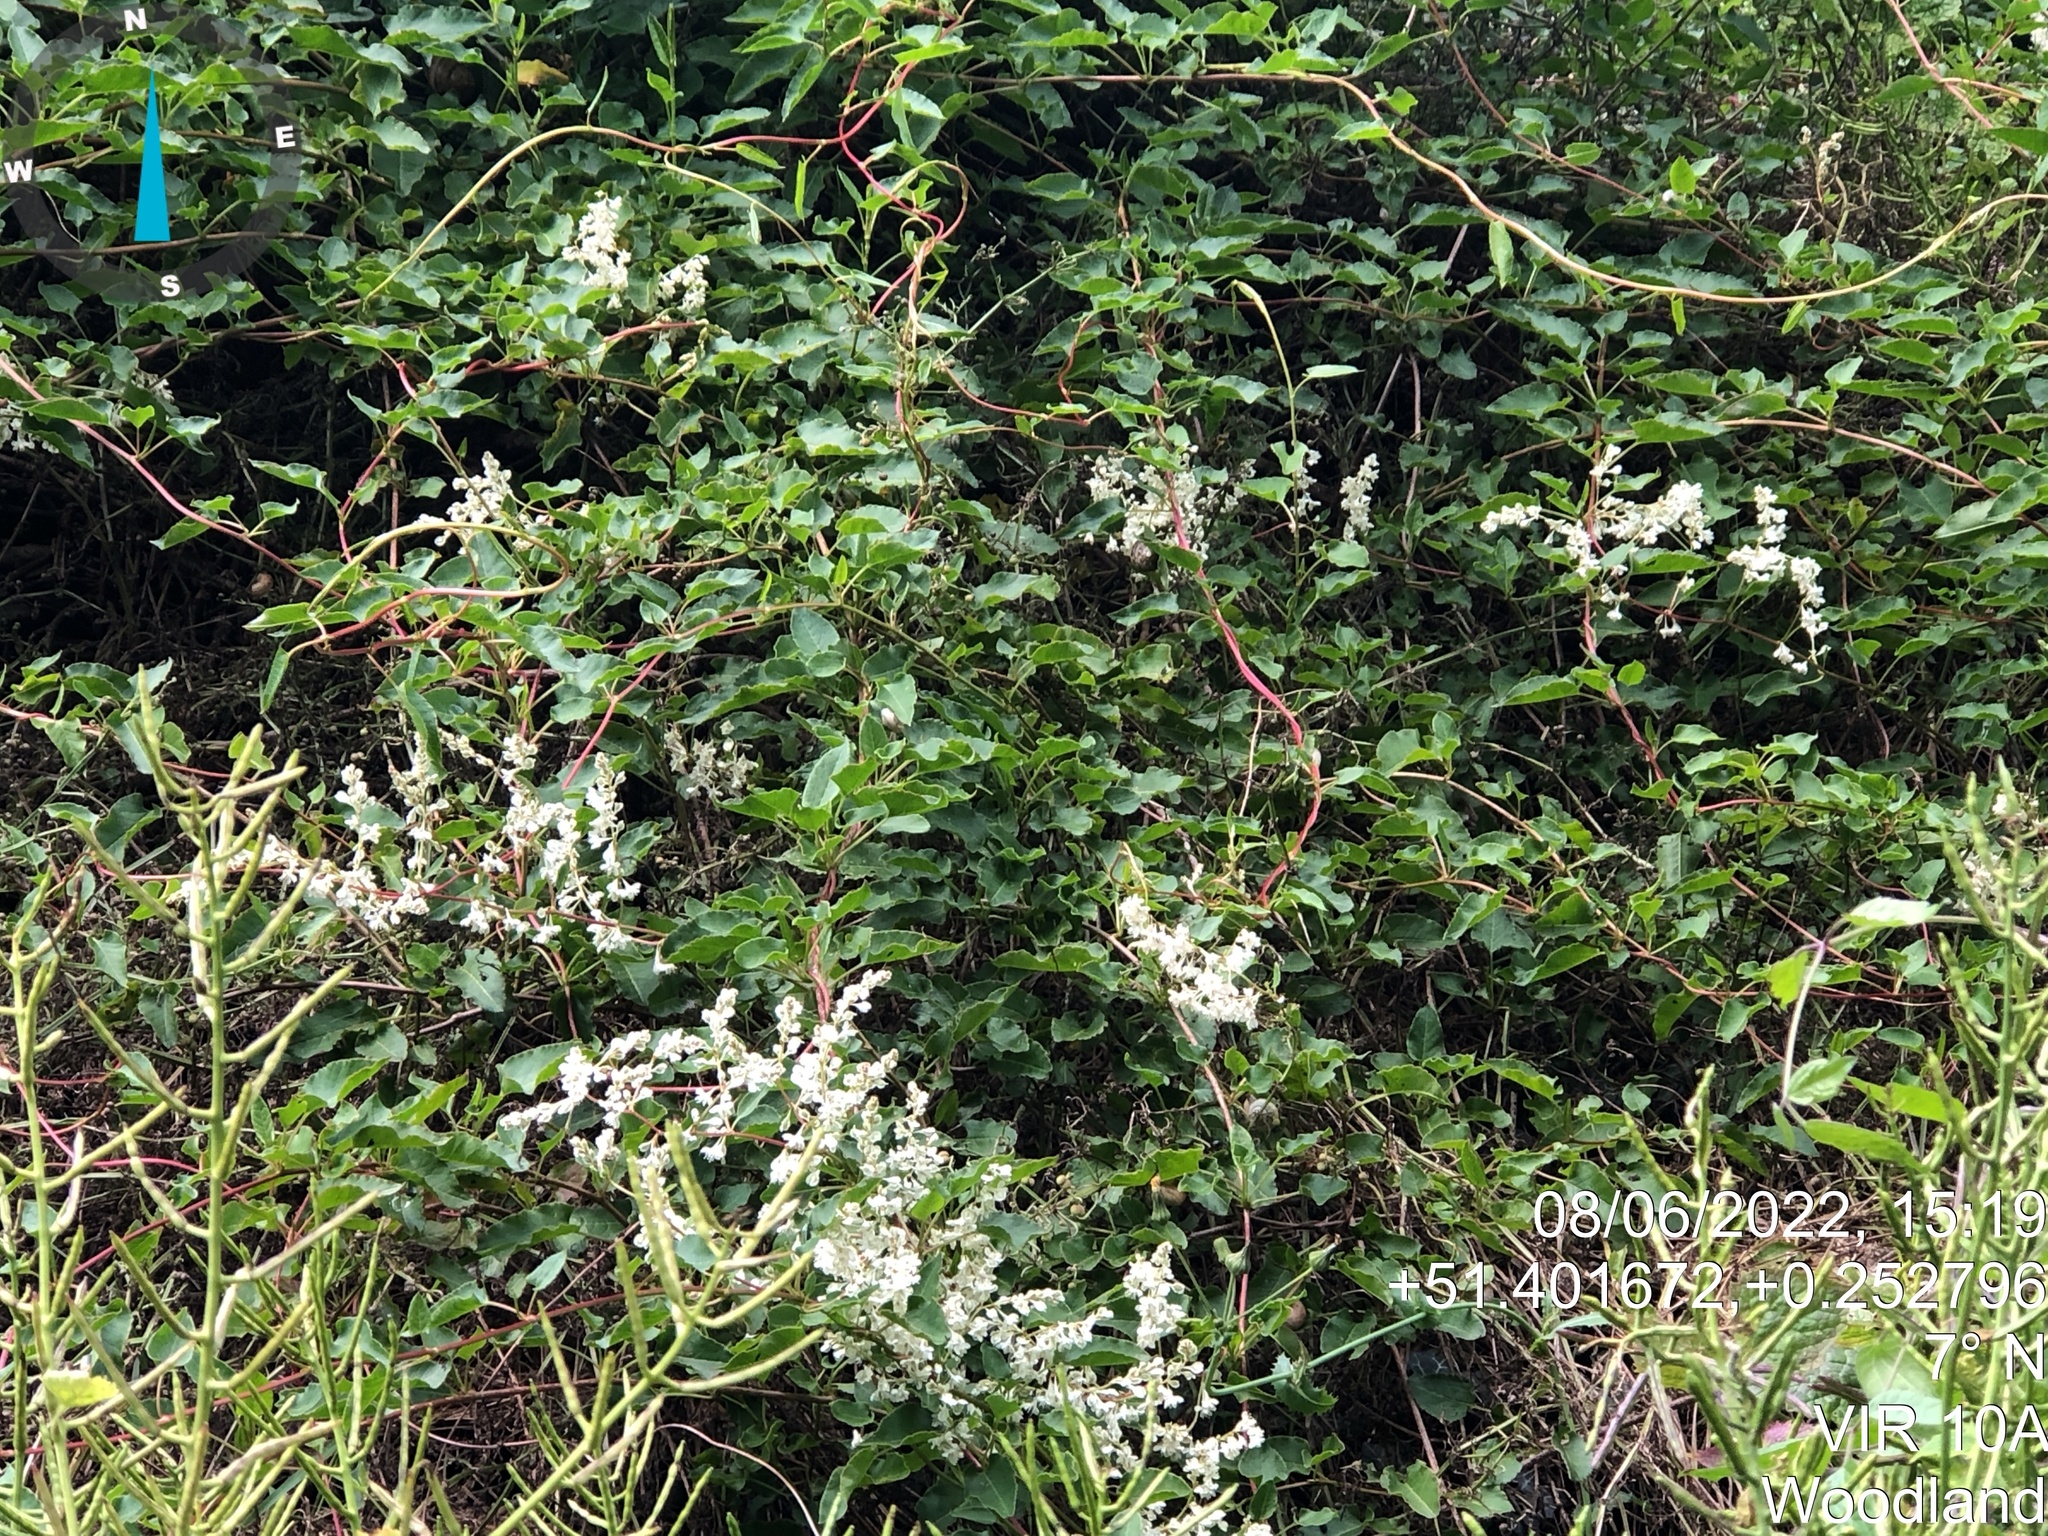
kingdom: Plantae
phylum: Tracheophyta
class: Magnoliopsida
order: Caryophyllales
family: Polygonaceae
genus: Fallopia
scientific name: Fallopia baldschuanica
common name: Russian-vine
